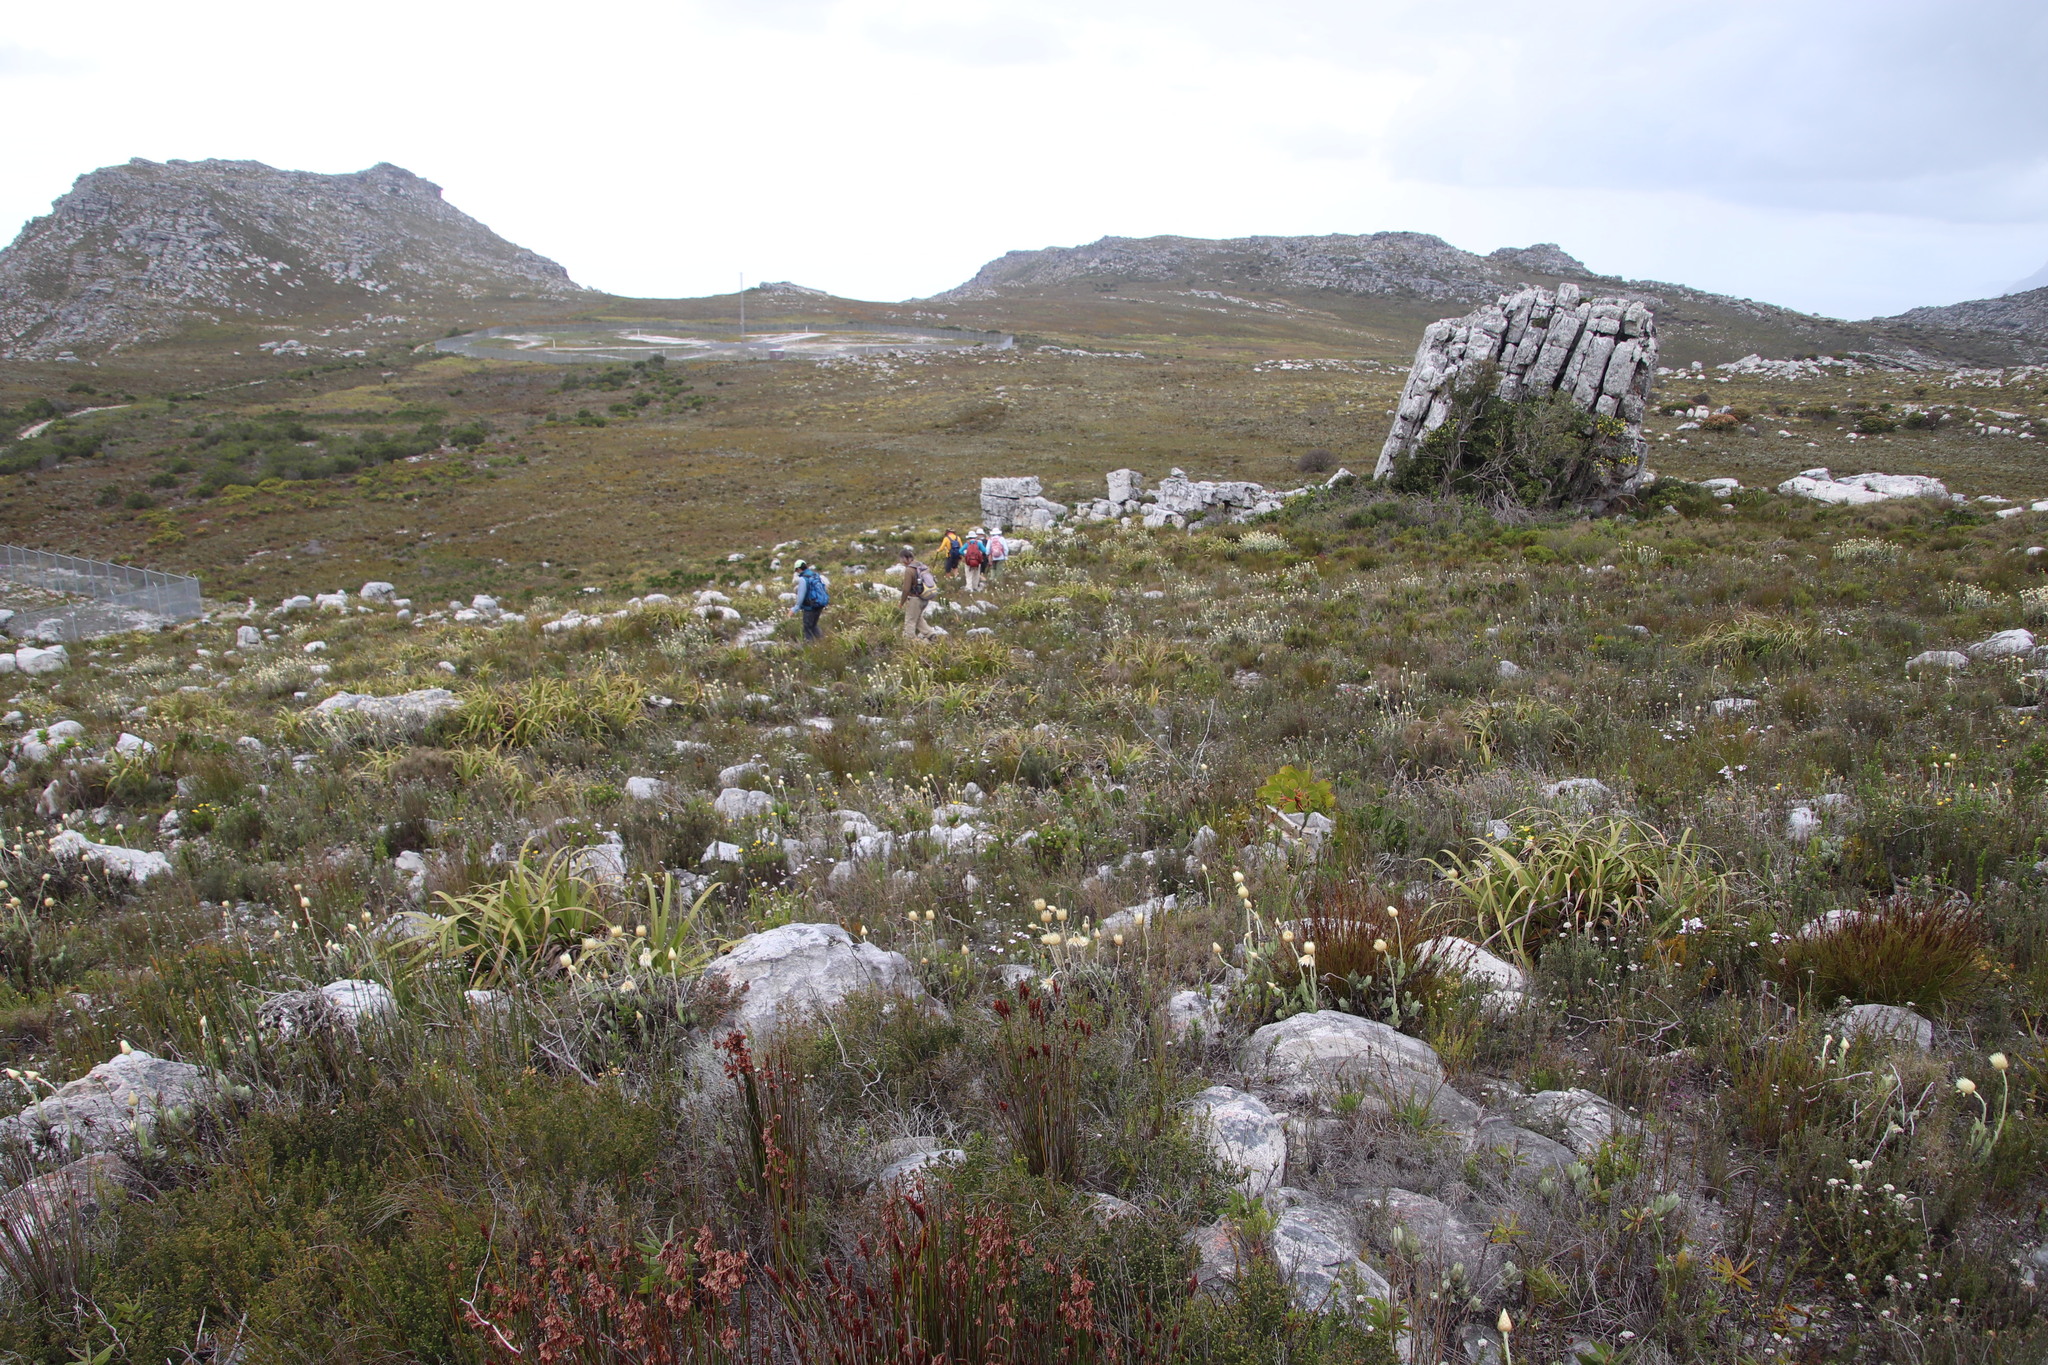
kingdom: Plantae
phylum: Tracheophyta
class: Liliopsida
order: Poales
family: Cyperaceae
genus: Tetraria
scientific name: Tetraria thermalis
